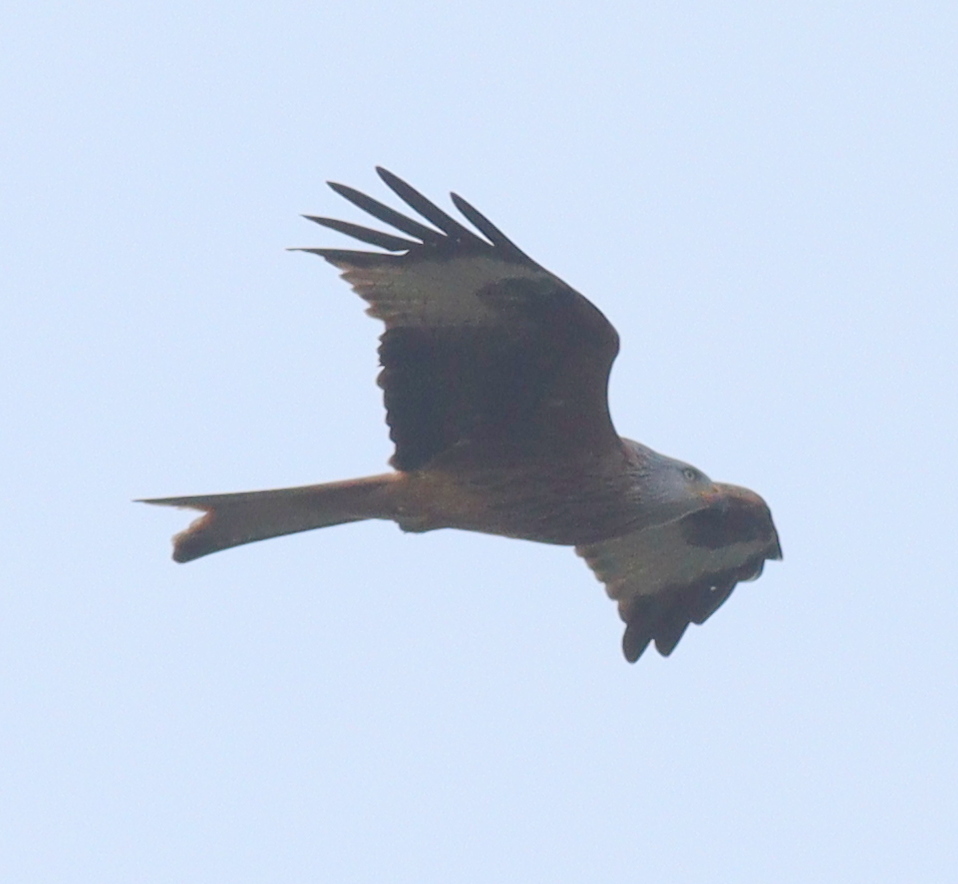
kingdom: Animalia
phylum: Chordata
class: Aves
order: Accipitriformes
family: Accipitridae
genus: Milvus
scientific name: Milvus milvus
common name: Red kite
